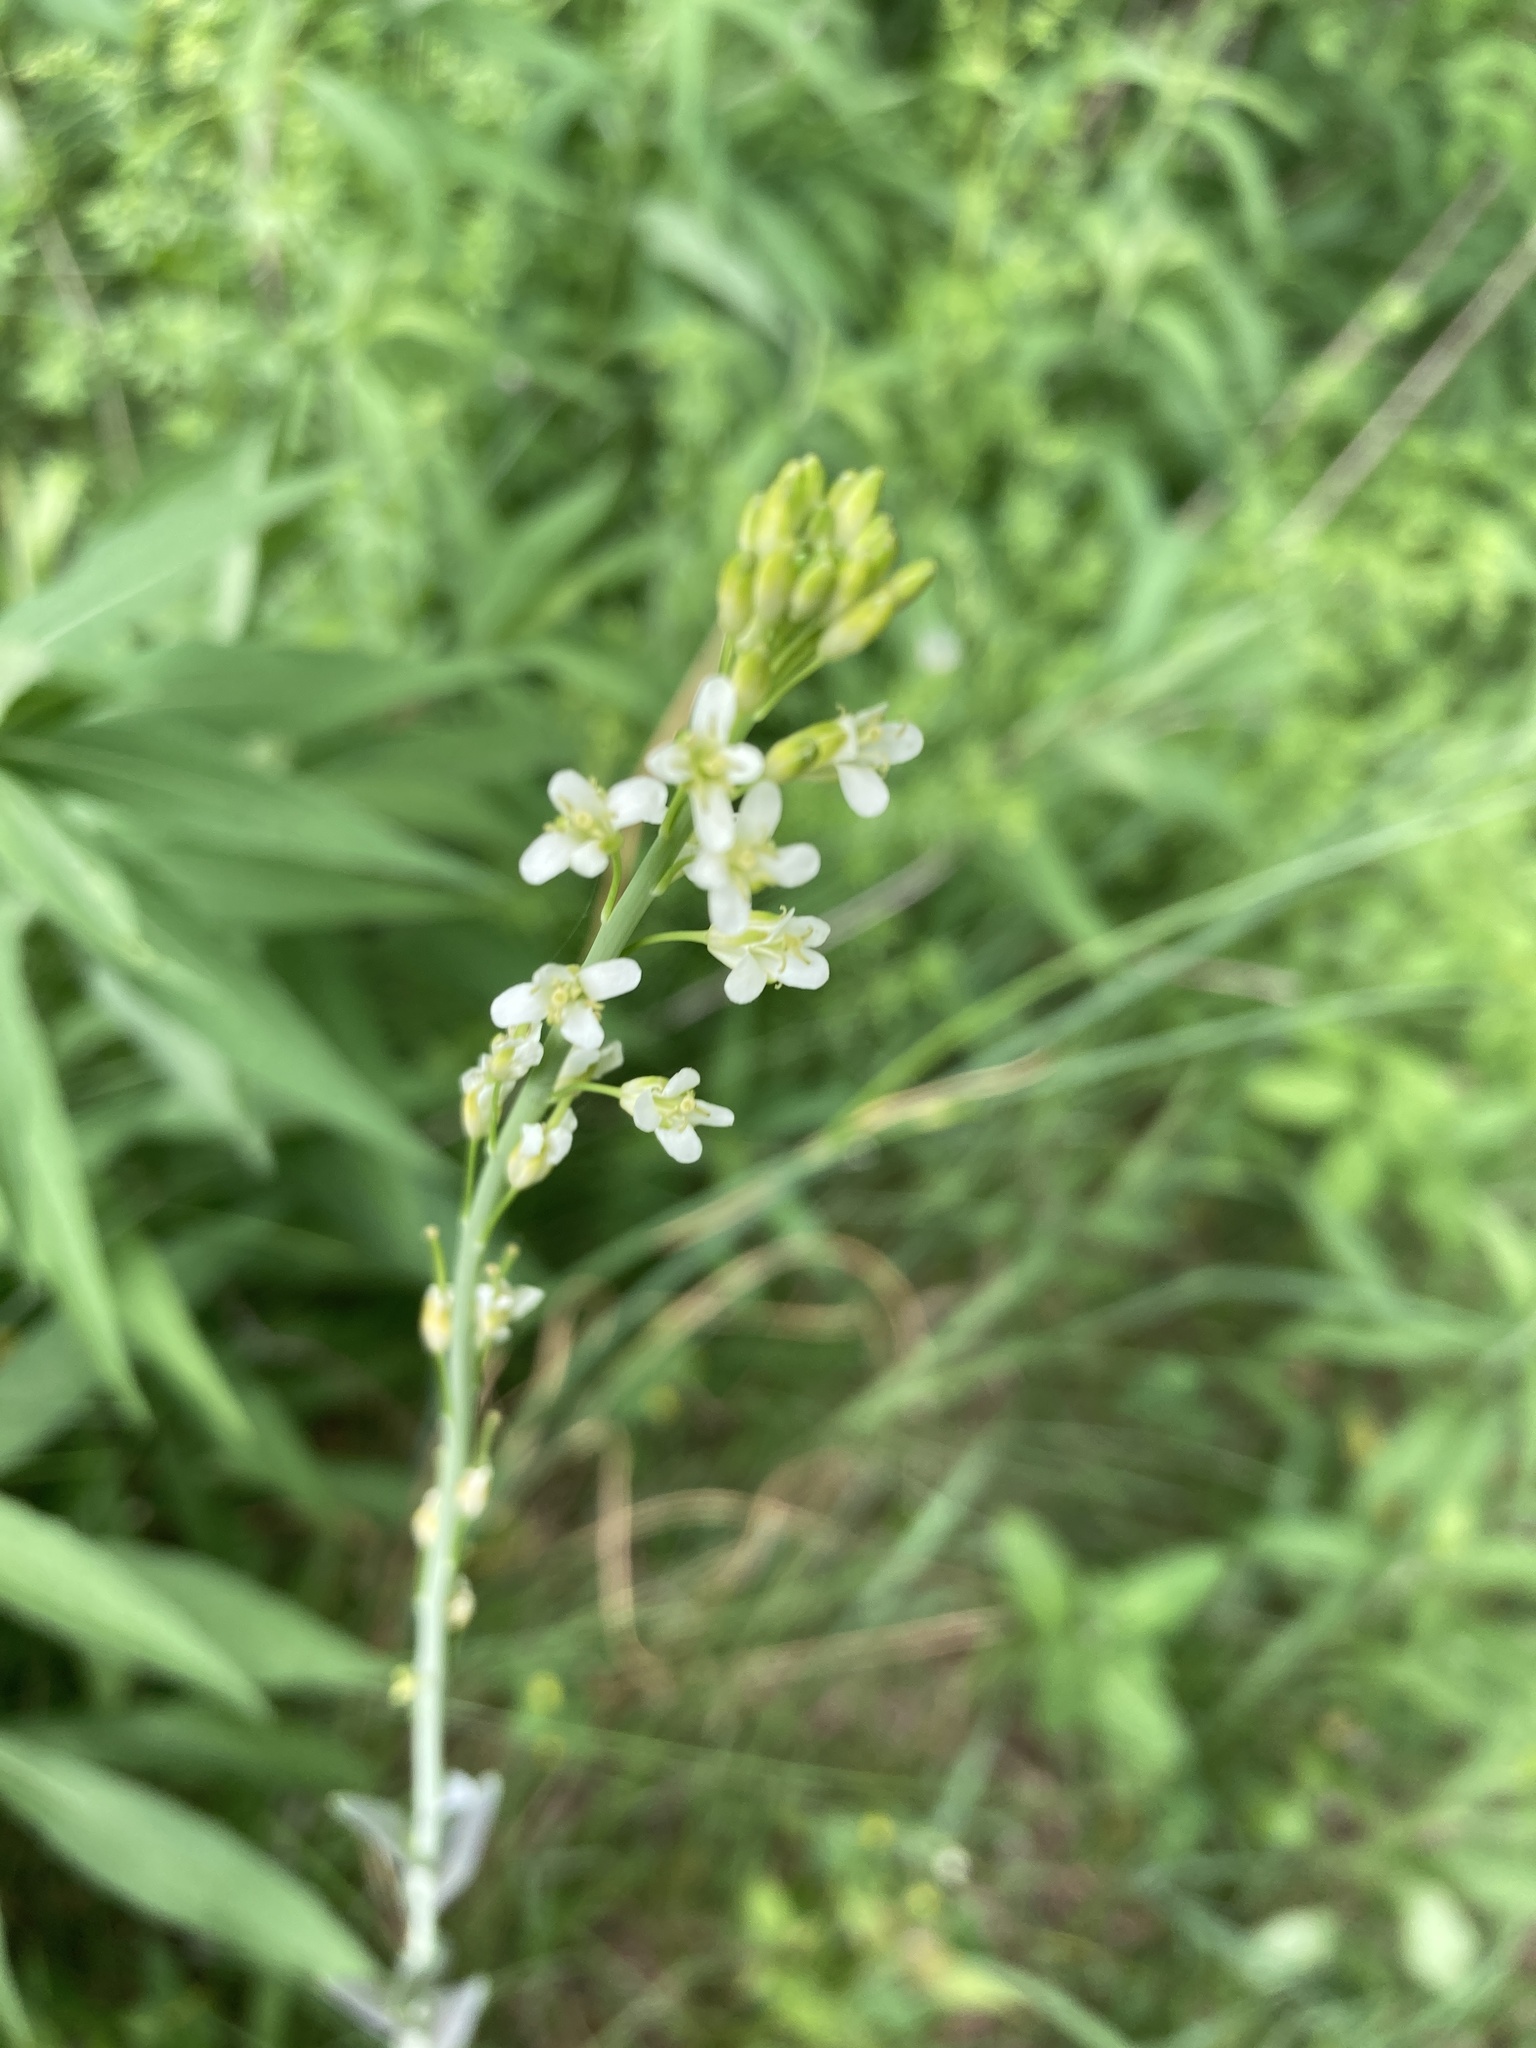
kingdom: Plantae
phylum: Tracheophyta
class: Magnoliopsida
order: Brassicales
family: Brassicaceae
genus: Turritis
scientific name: Turritis glabra
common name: Tower rockcress
